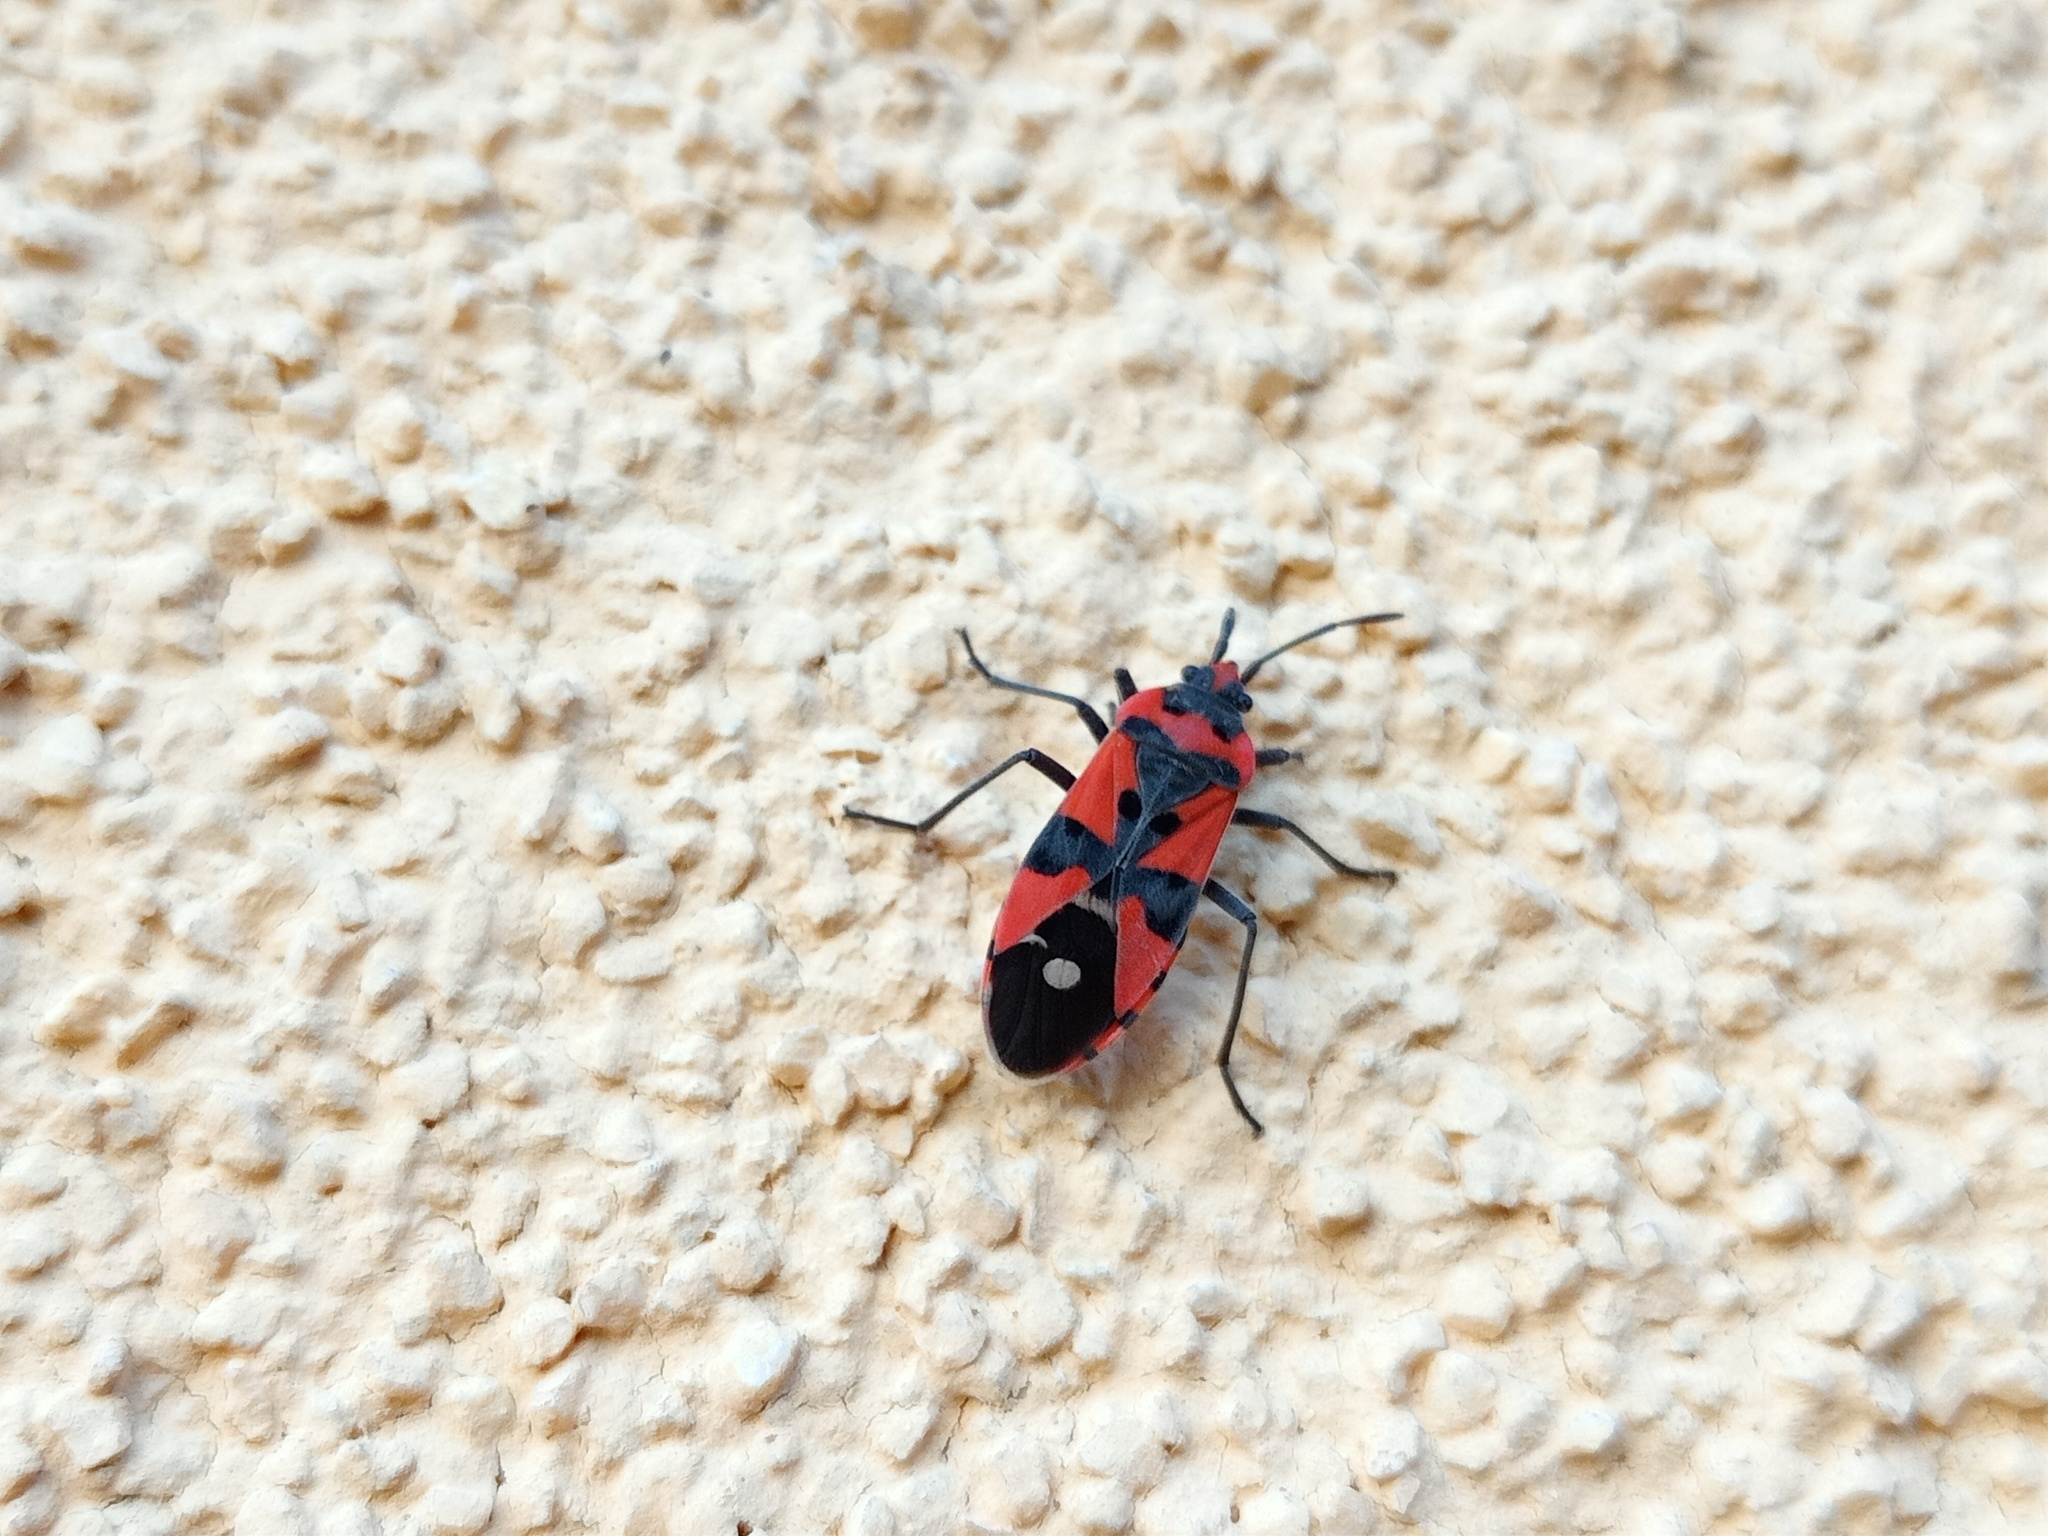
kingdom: Animalia
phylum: Arthropoda
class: Insecta
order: Hemiptera
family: Lygaeidae
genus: Lygaeus
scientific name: Lygaeus equestris
